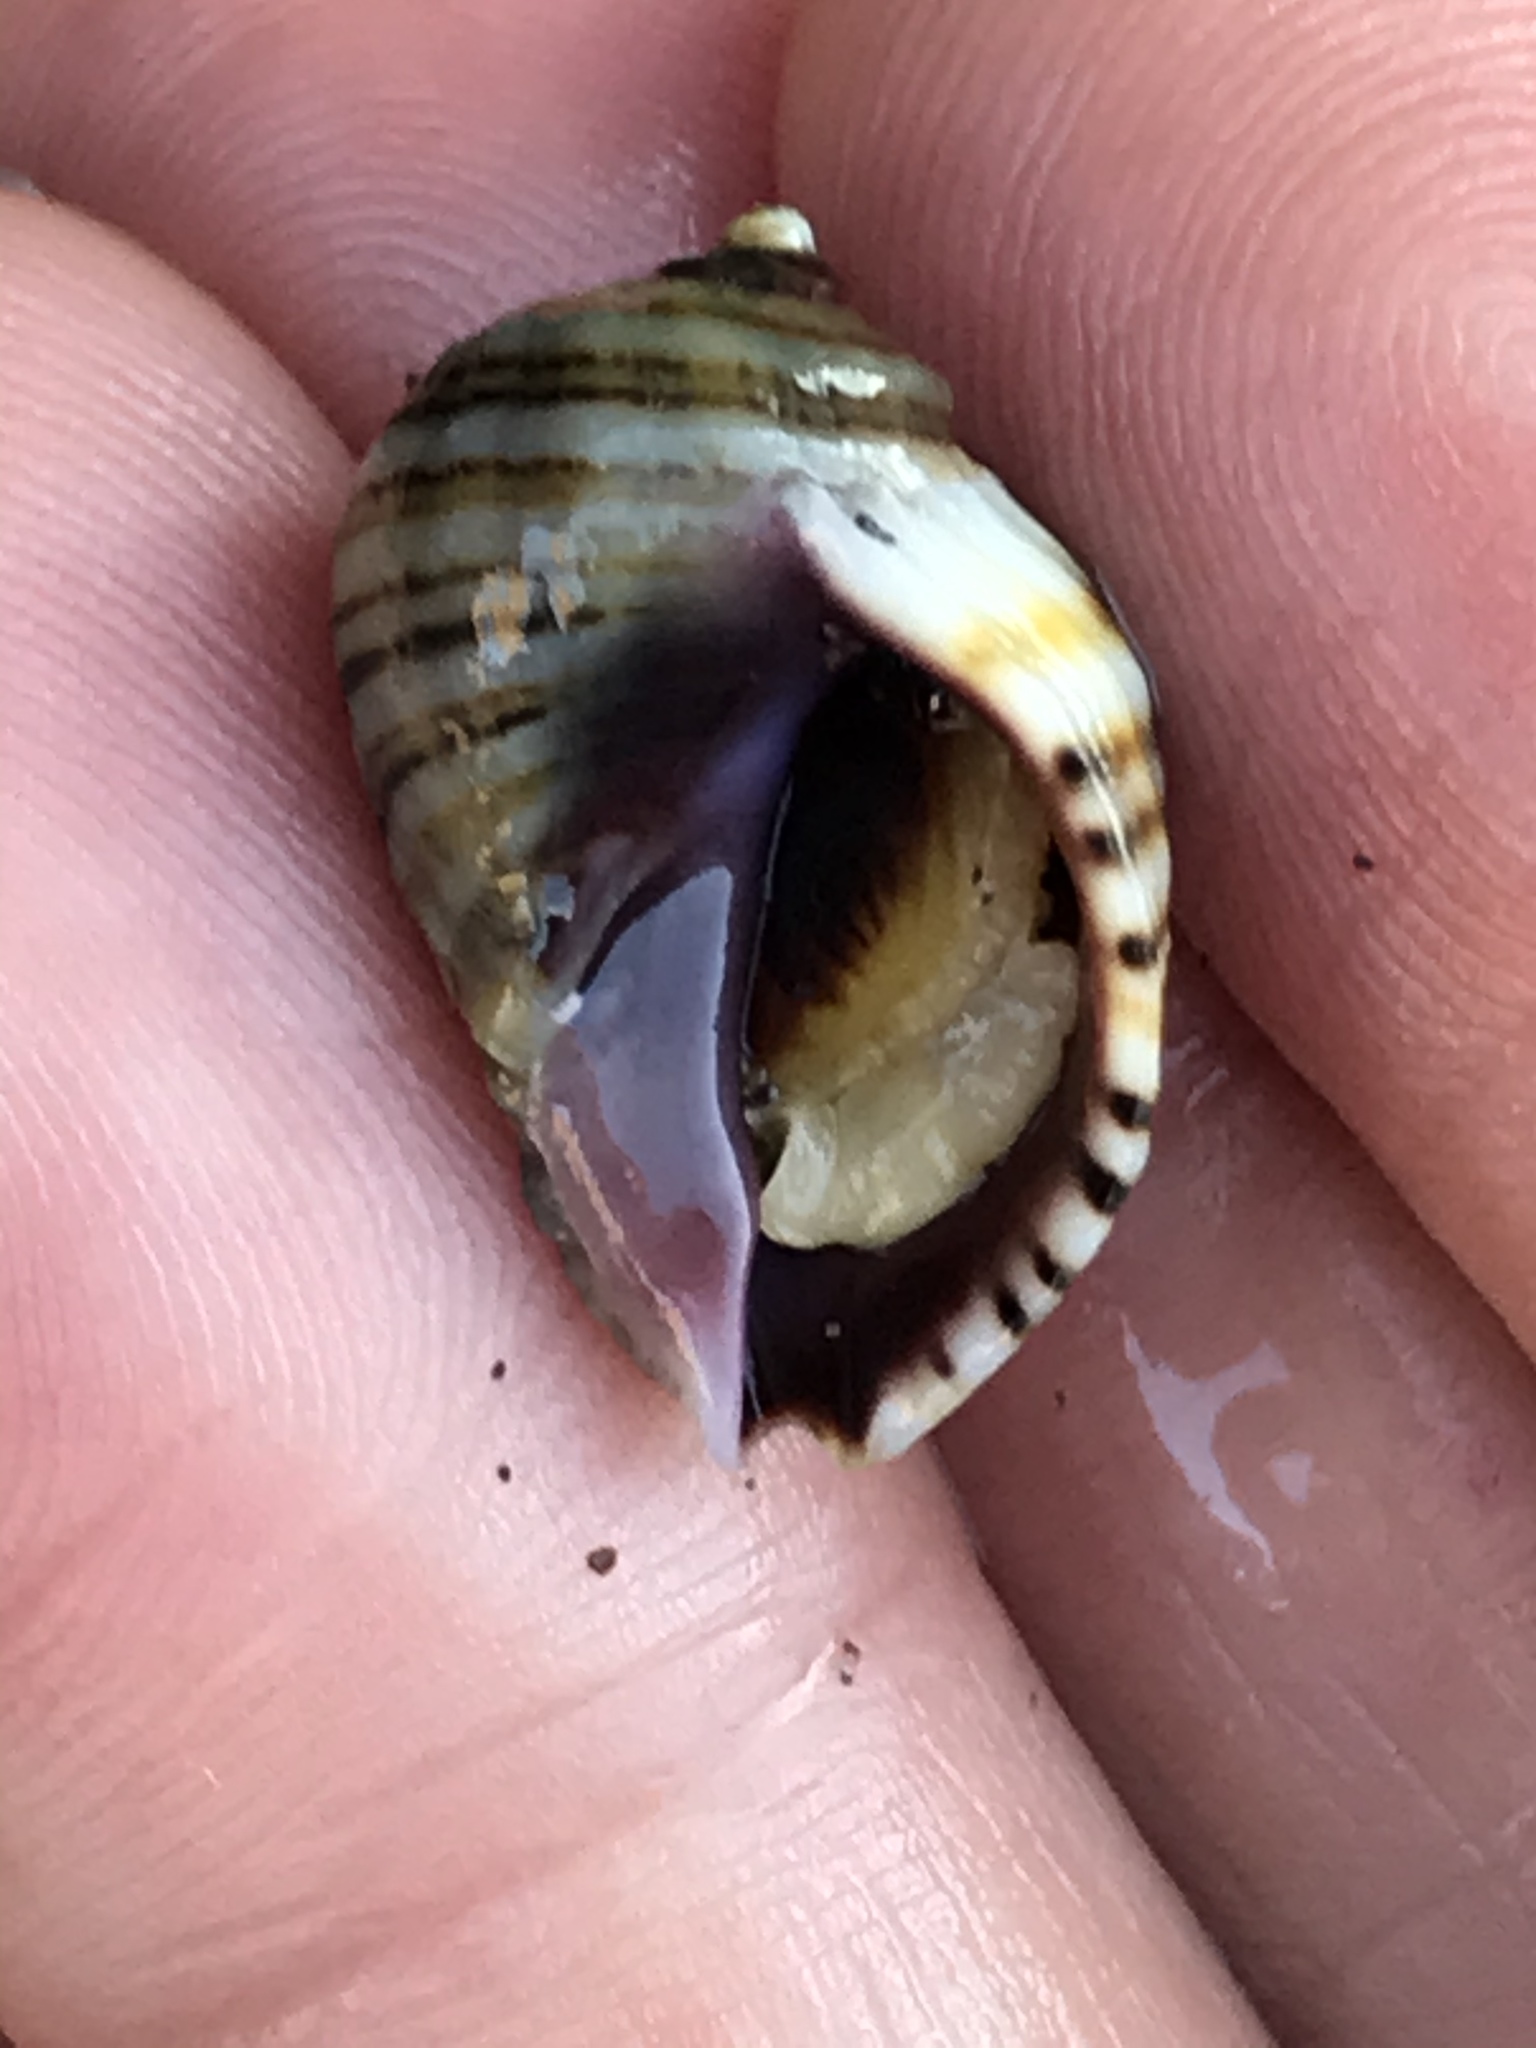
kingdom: Animalia
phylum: Mollusca
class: Gastropoda
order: Neogastropoda
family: Muricidae
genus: Nucella
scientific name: Nucella ostrina
